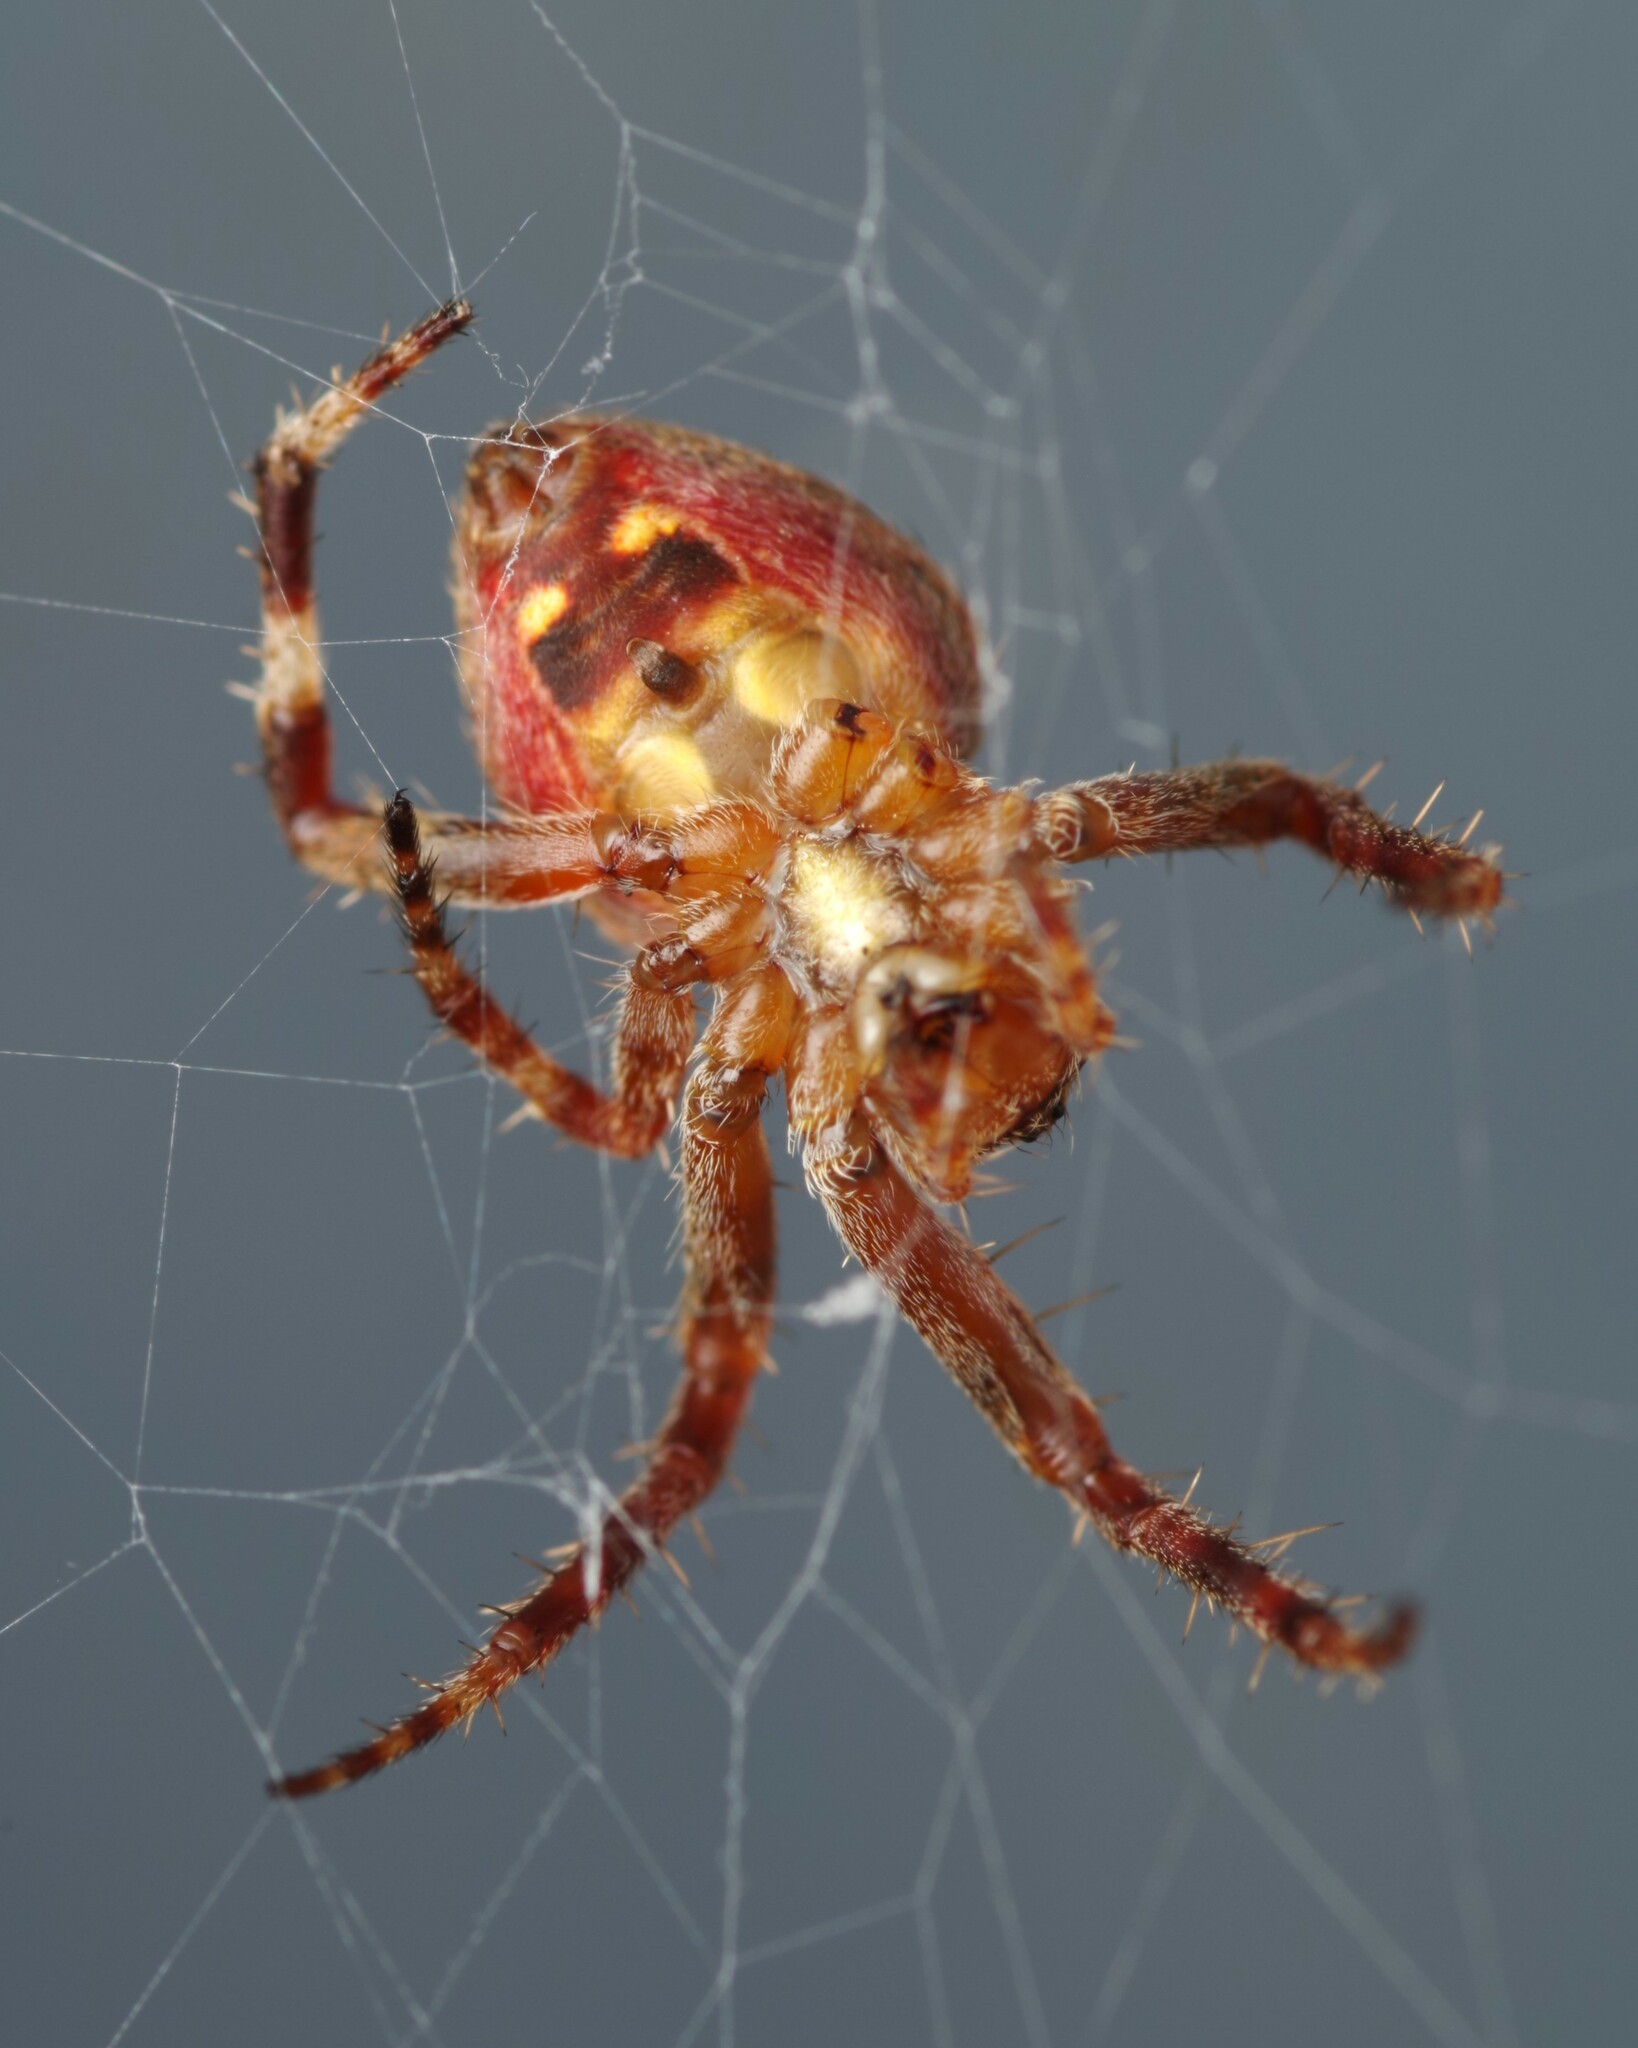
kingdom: Animalia
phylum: Arthropoda
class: Arachnida
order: Araneae
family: Araneidae
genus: Neoscona
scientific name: Neoscona subfusca
